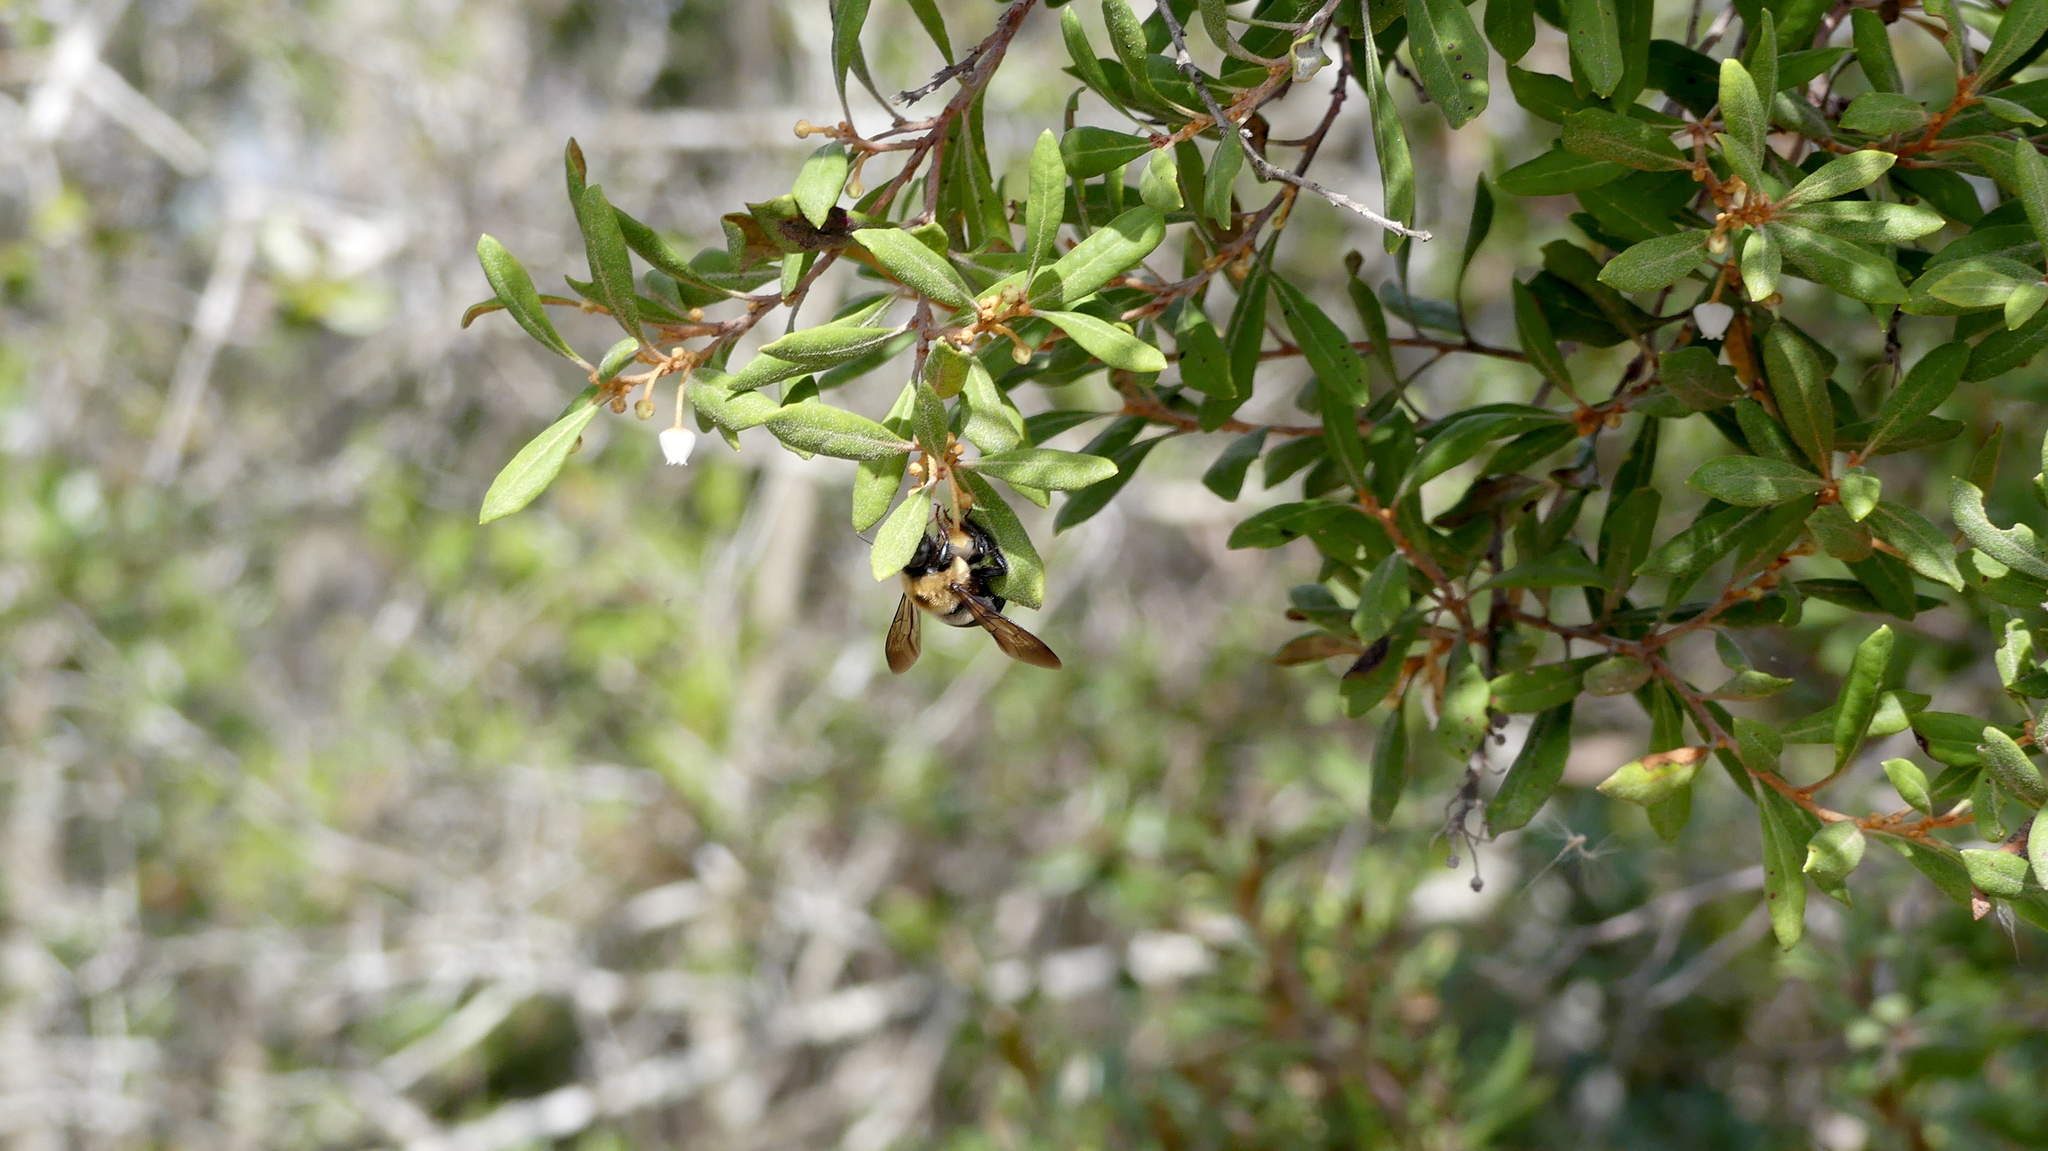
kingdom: Animalia
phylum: Arthropoda
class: Insecta
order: Hymenoptera
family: Apidae
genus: Xylocopa
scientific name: Xylocopa virginica
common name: Carpenter bee
